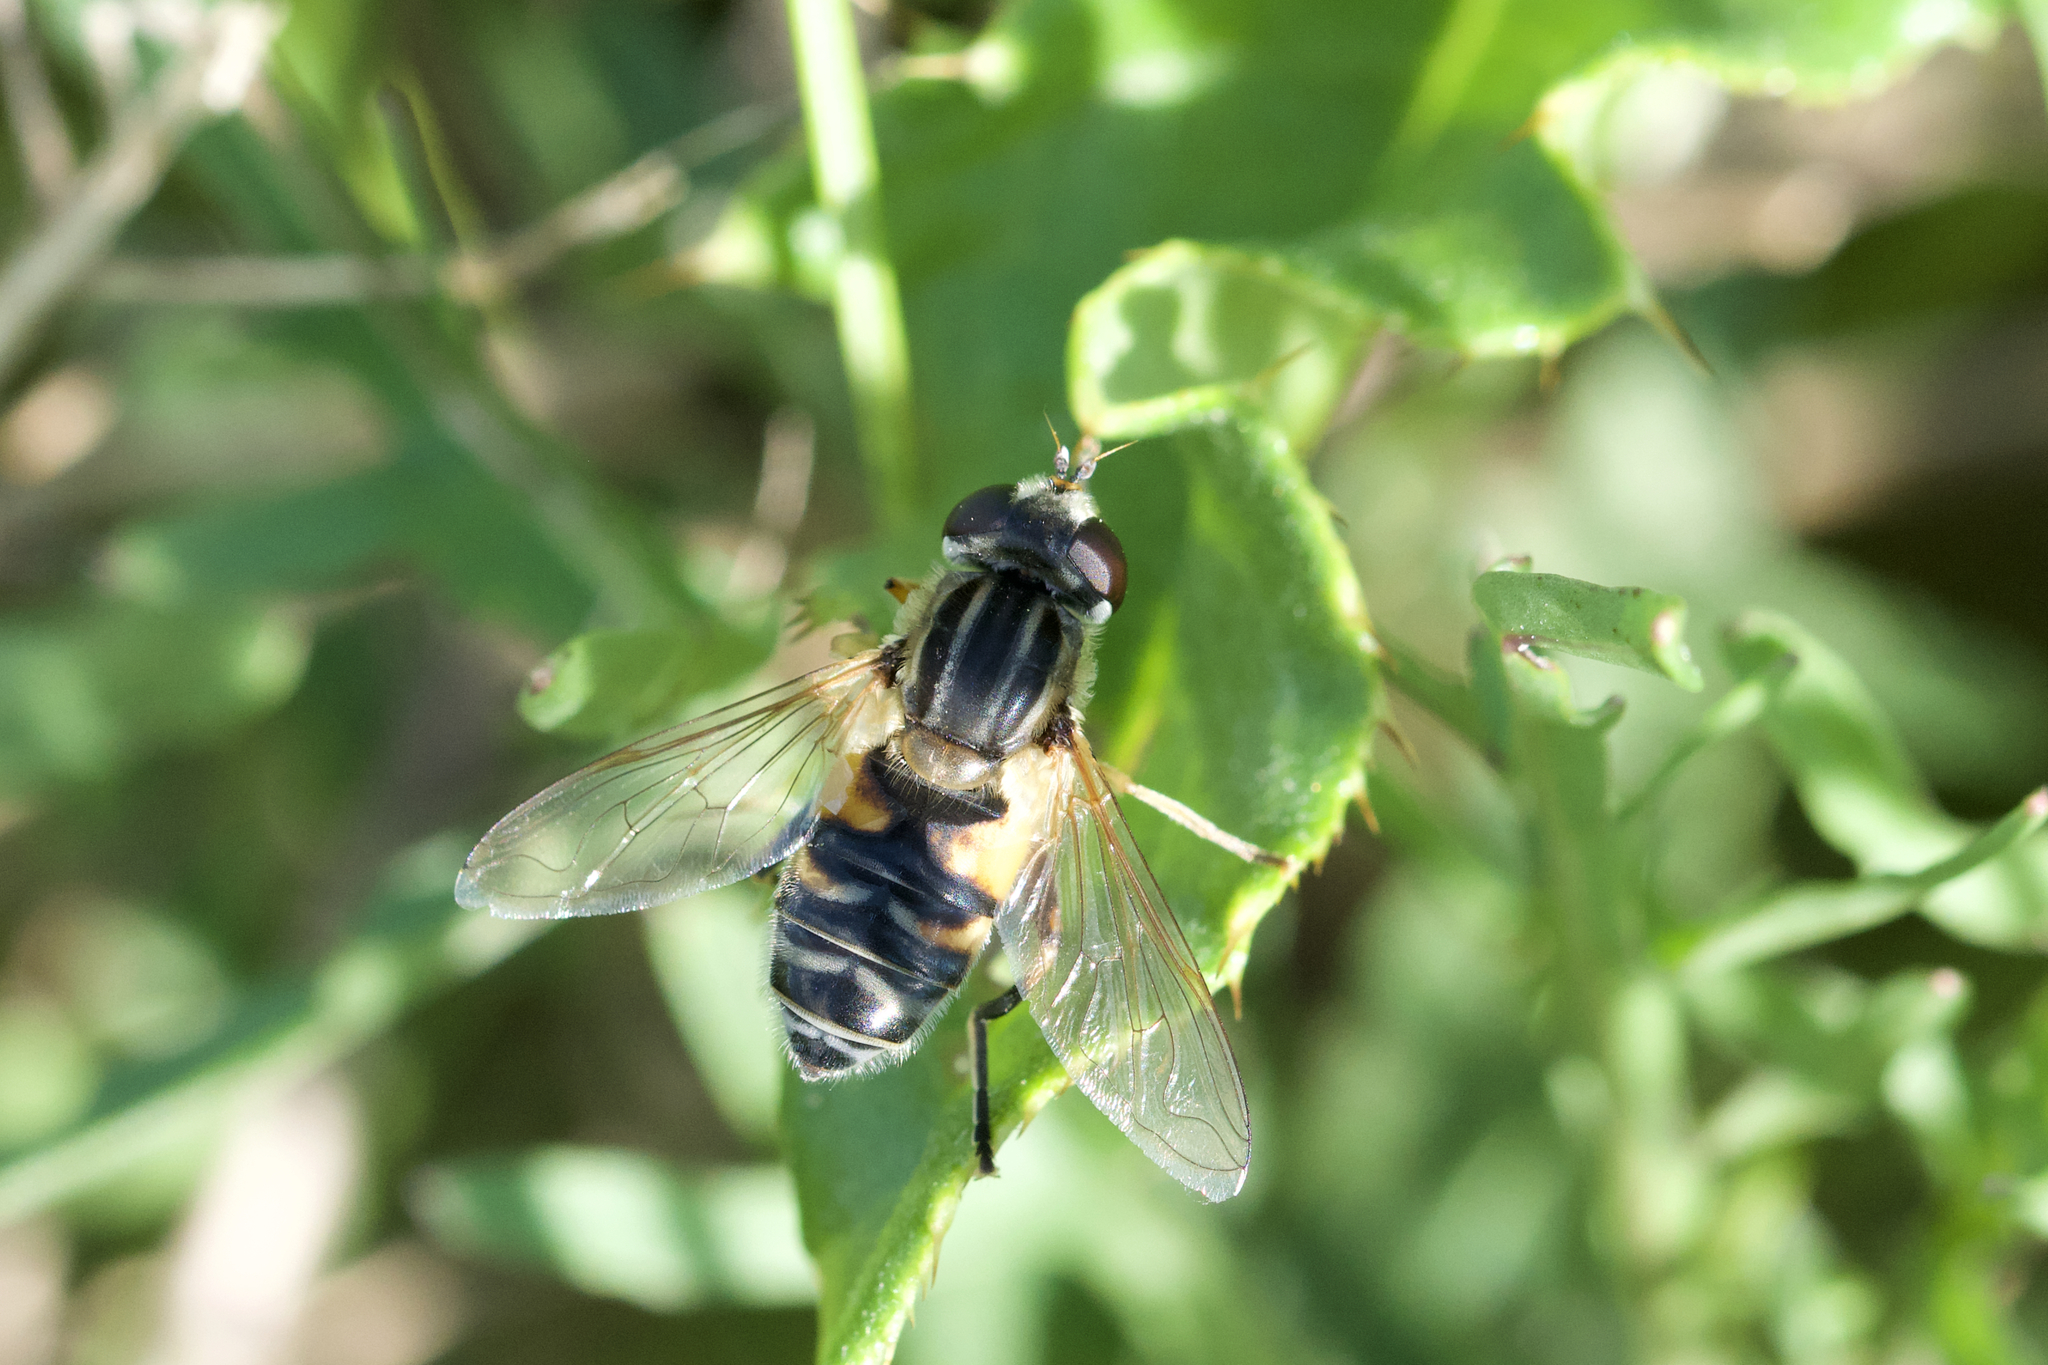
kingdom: Animalia
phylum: Arthropoda
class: Insecta
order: Diptera
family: Syrphidae
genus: Helophilus
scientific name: Helophilus latifrons
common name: Broad-headed marsh fly
